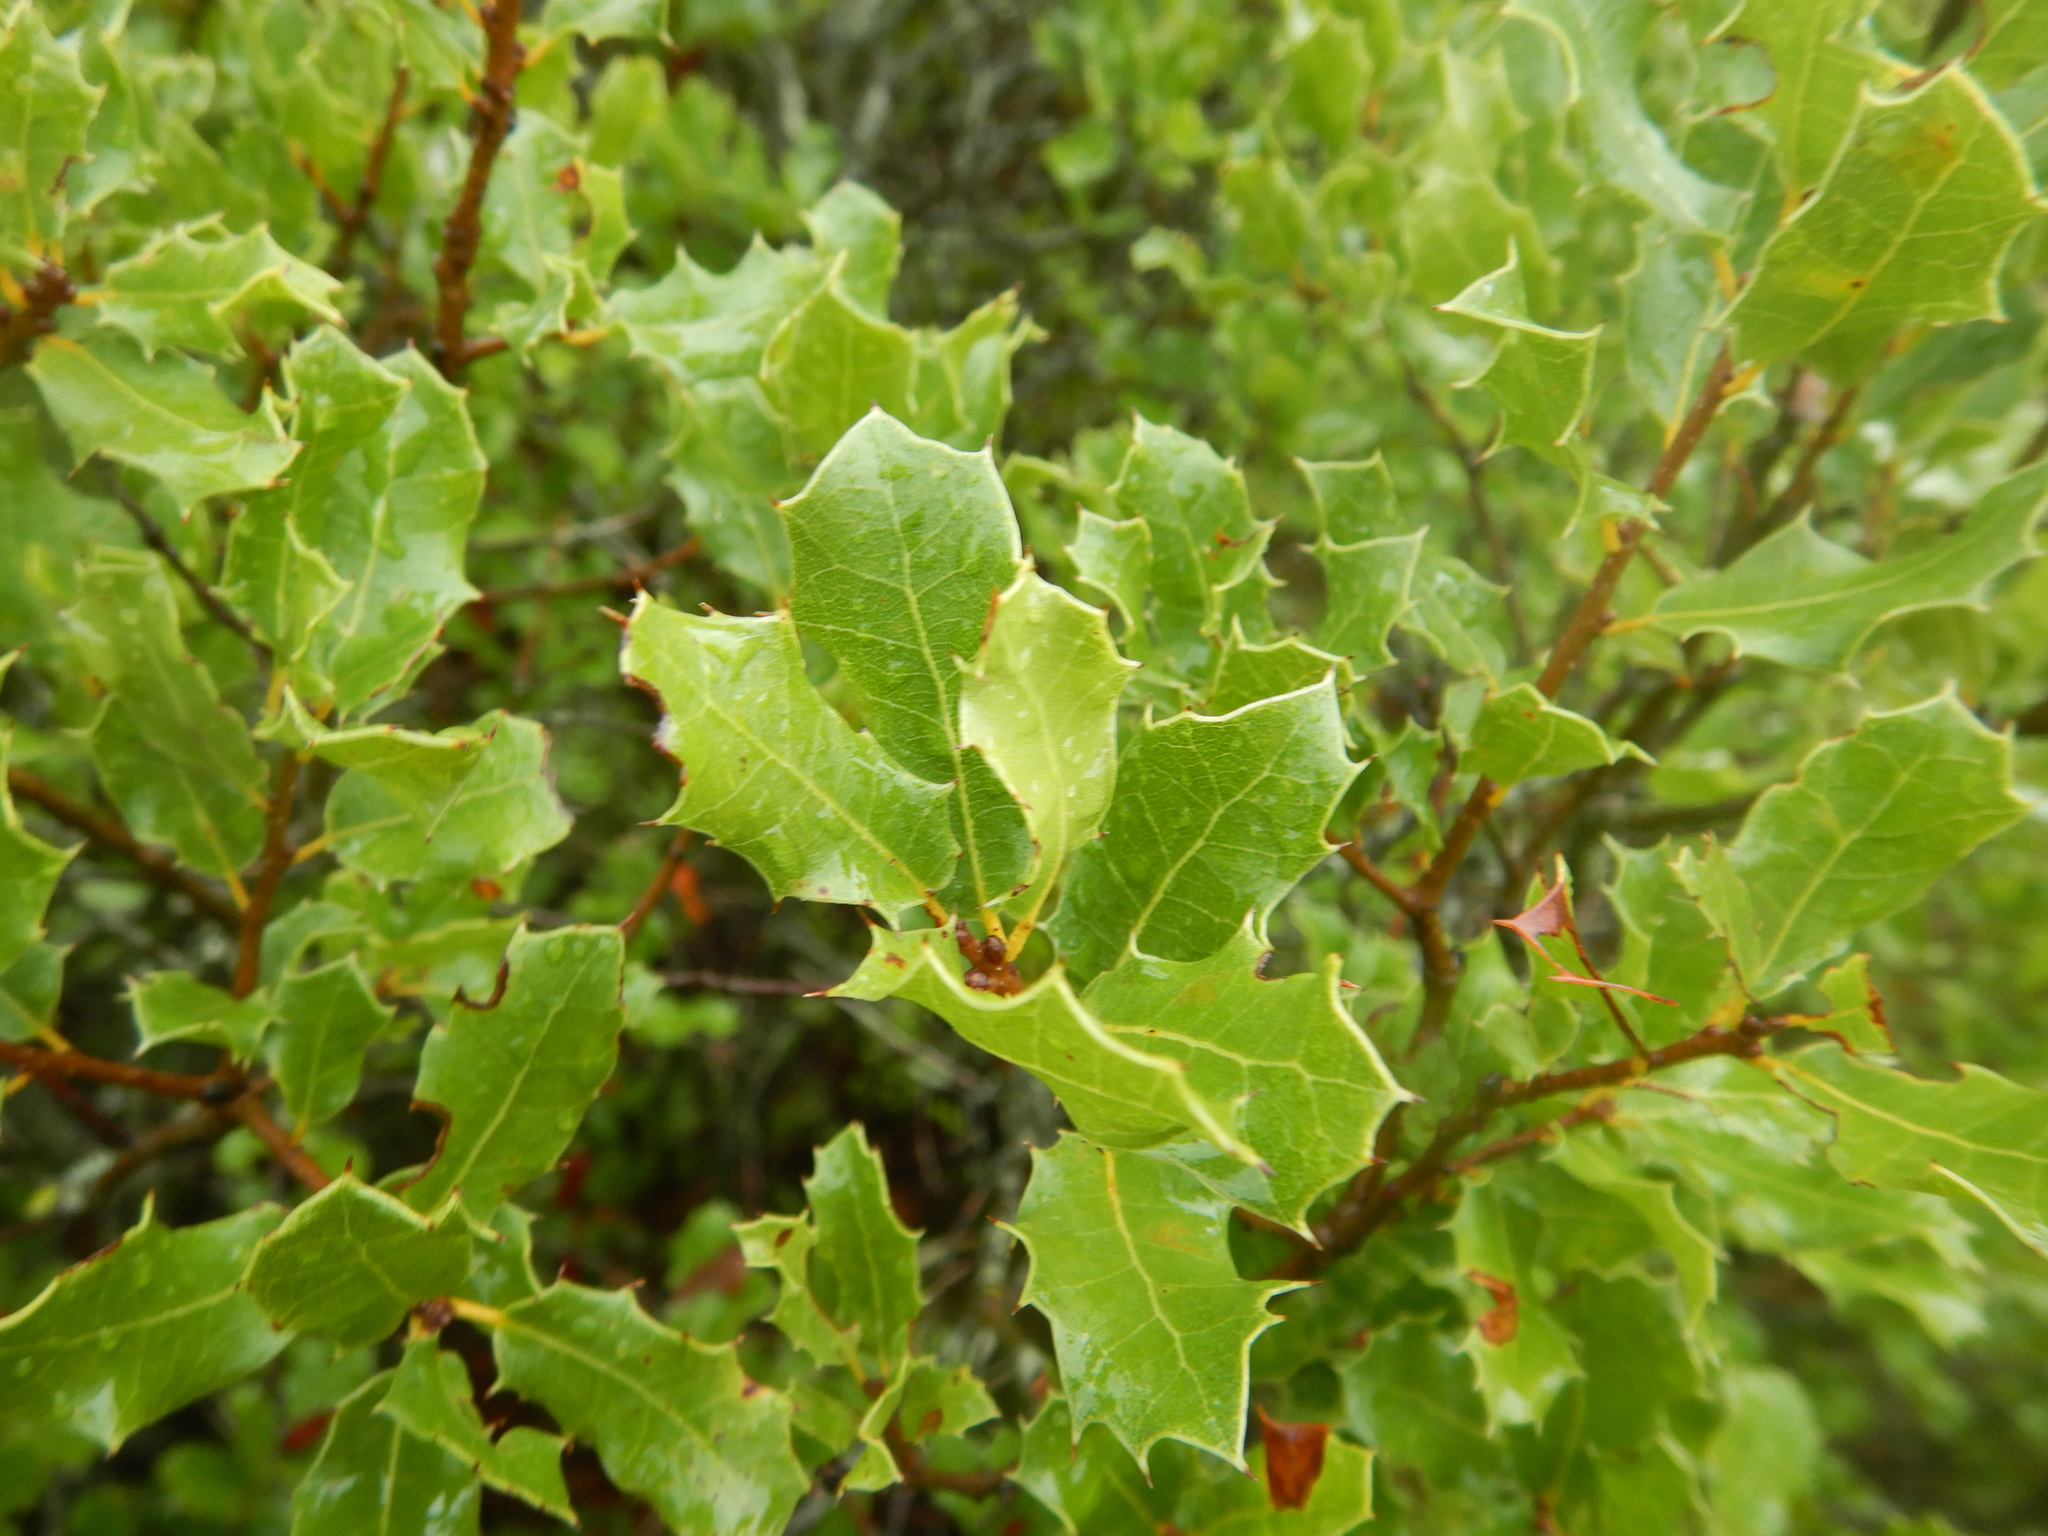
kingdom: Plantae
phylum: Tracheophyta
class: Magnoliopsida
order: Fagales
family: Fagaceae
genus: Quercus
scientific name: Quercus coccifera
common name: Kermes oak
